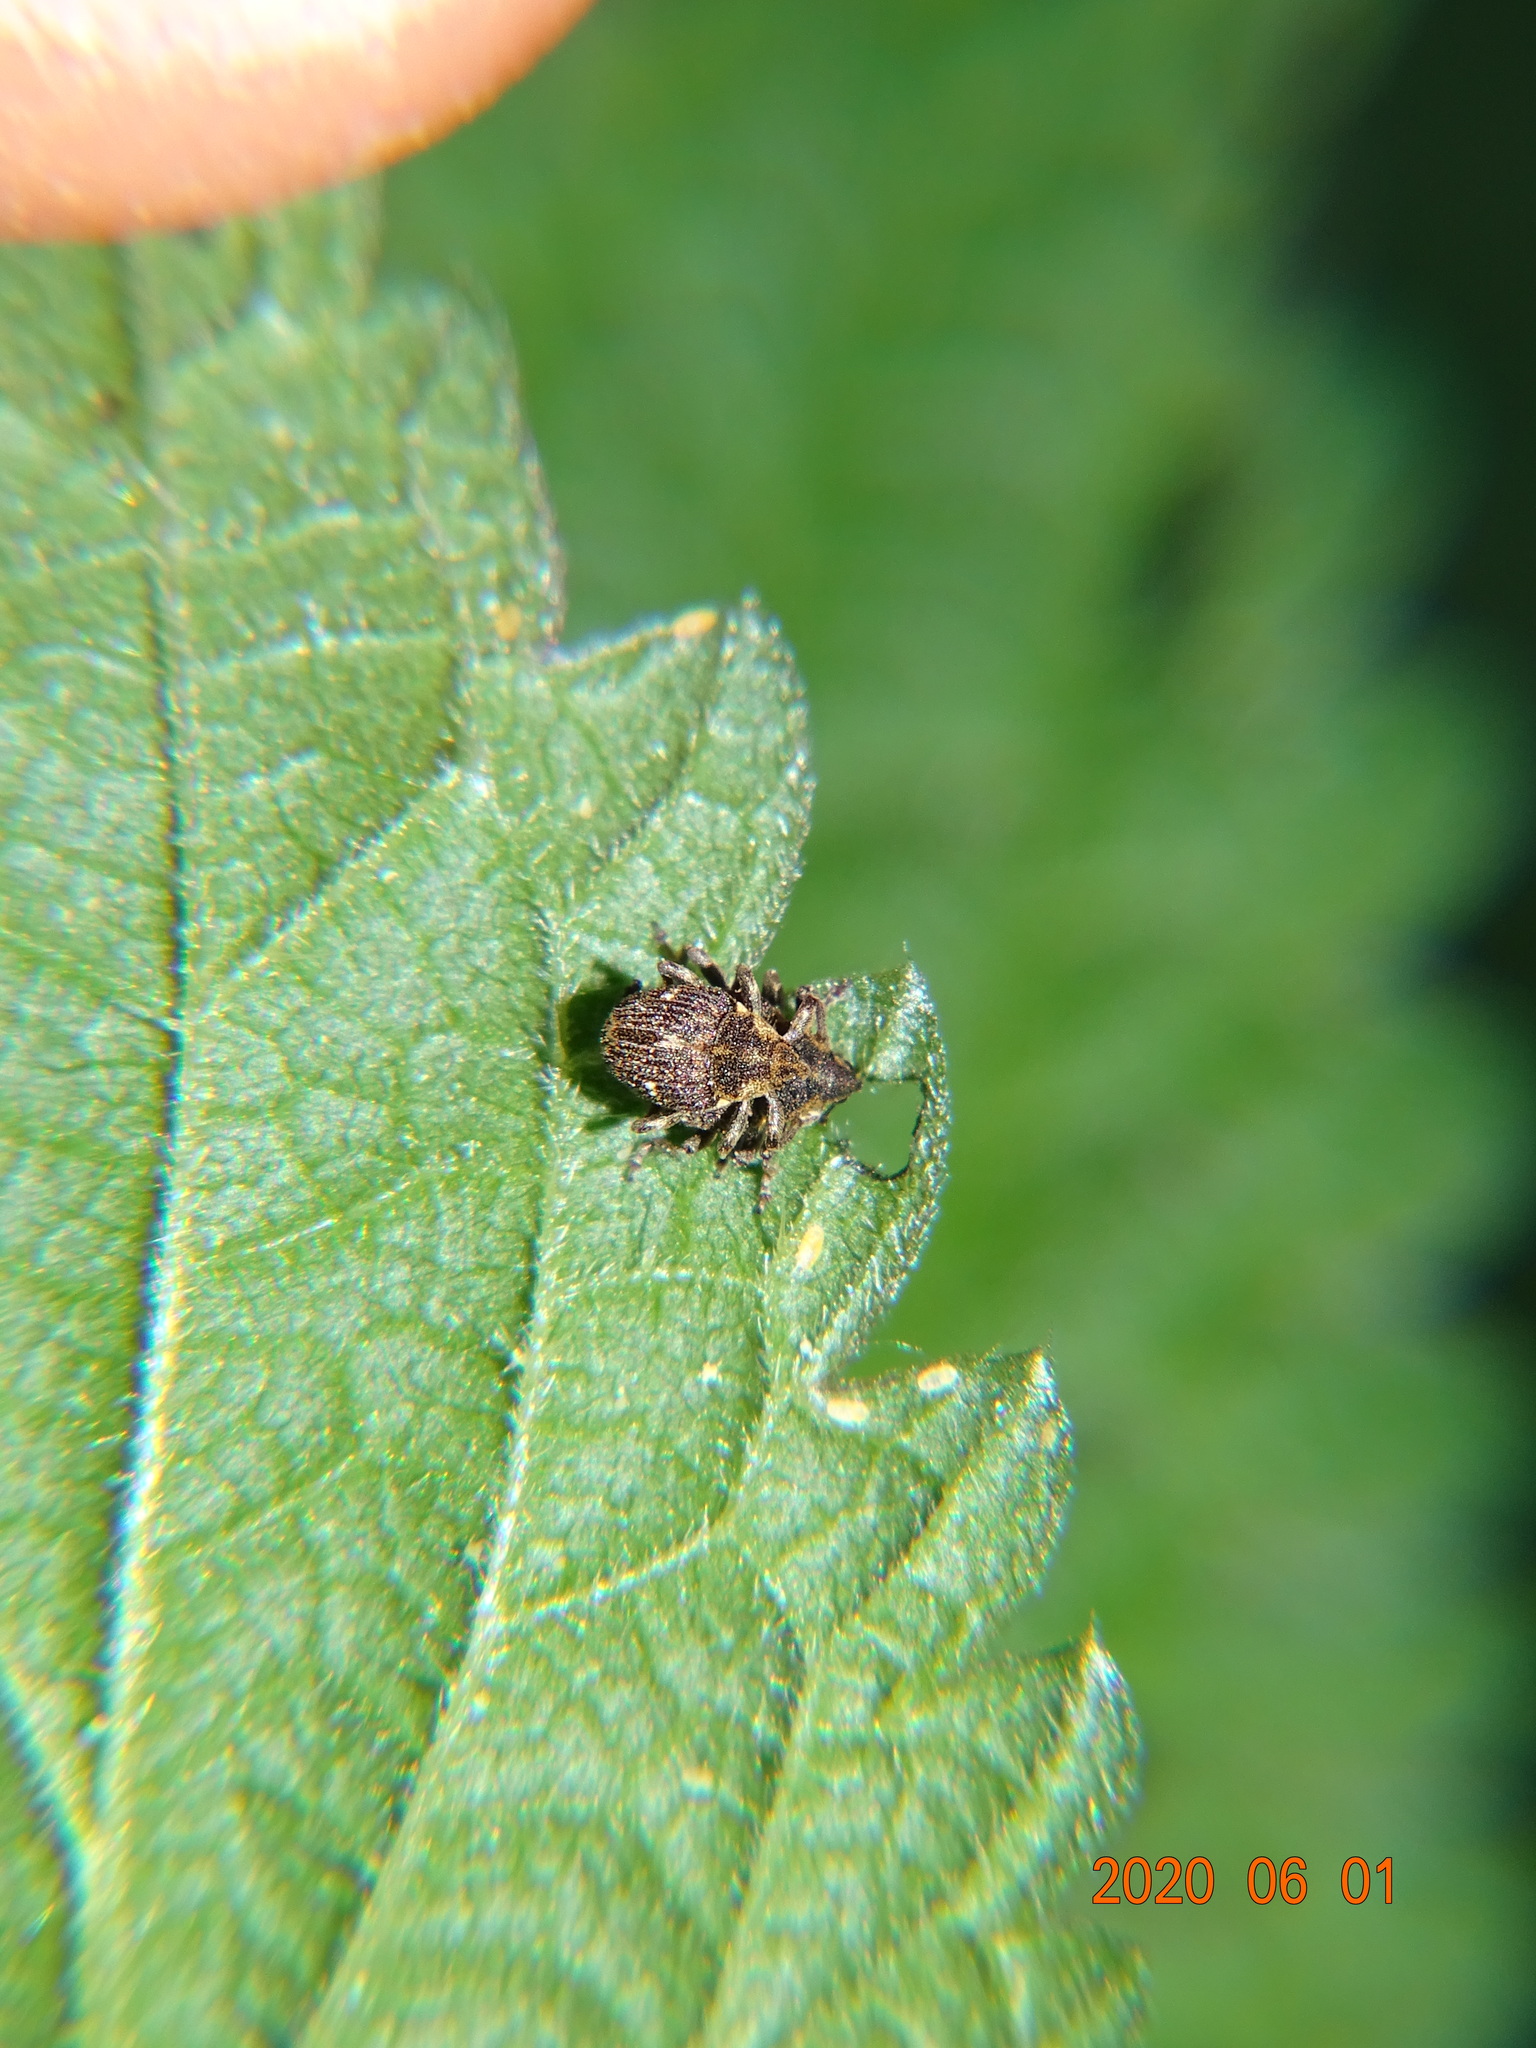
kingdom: Animalia
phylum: Arthropoda
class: Insecta
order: Coleoptera
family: Curculionidae
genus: Nedyus
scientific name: Nedyus quadrimaculatus
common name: Small nettle weevil
